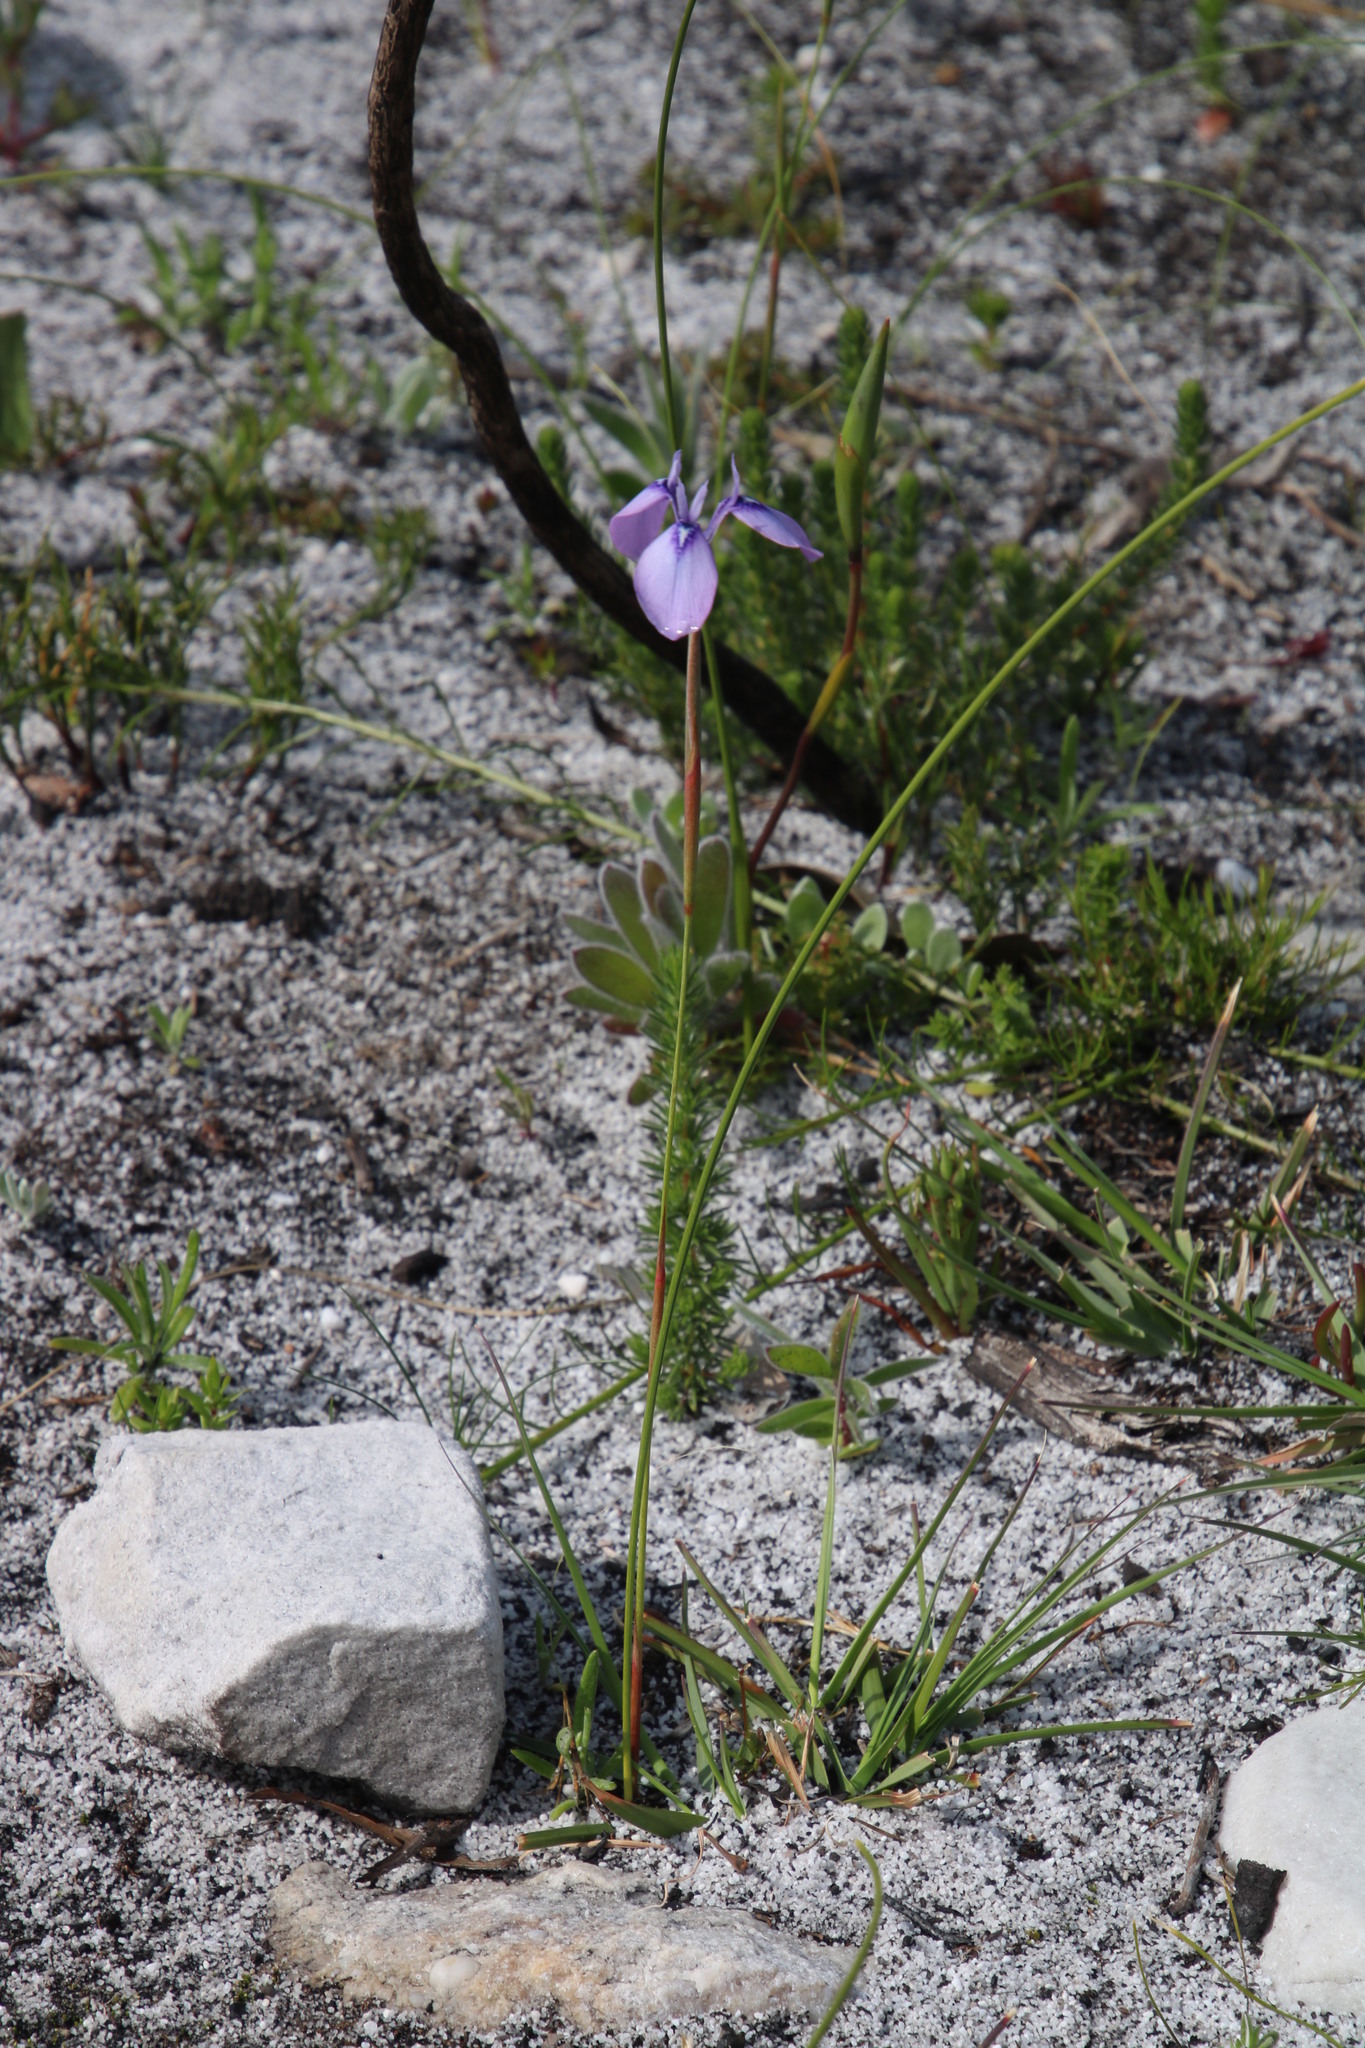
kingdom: Plantae
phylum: Tracheophyta
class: Liliopsida
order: Asparagales
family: Iridaceae
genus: Moraea
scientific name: Moraea tripetala
